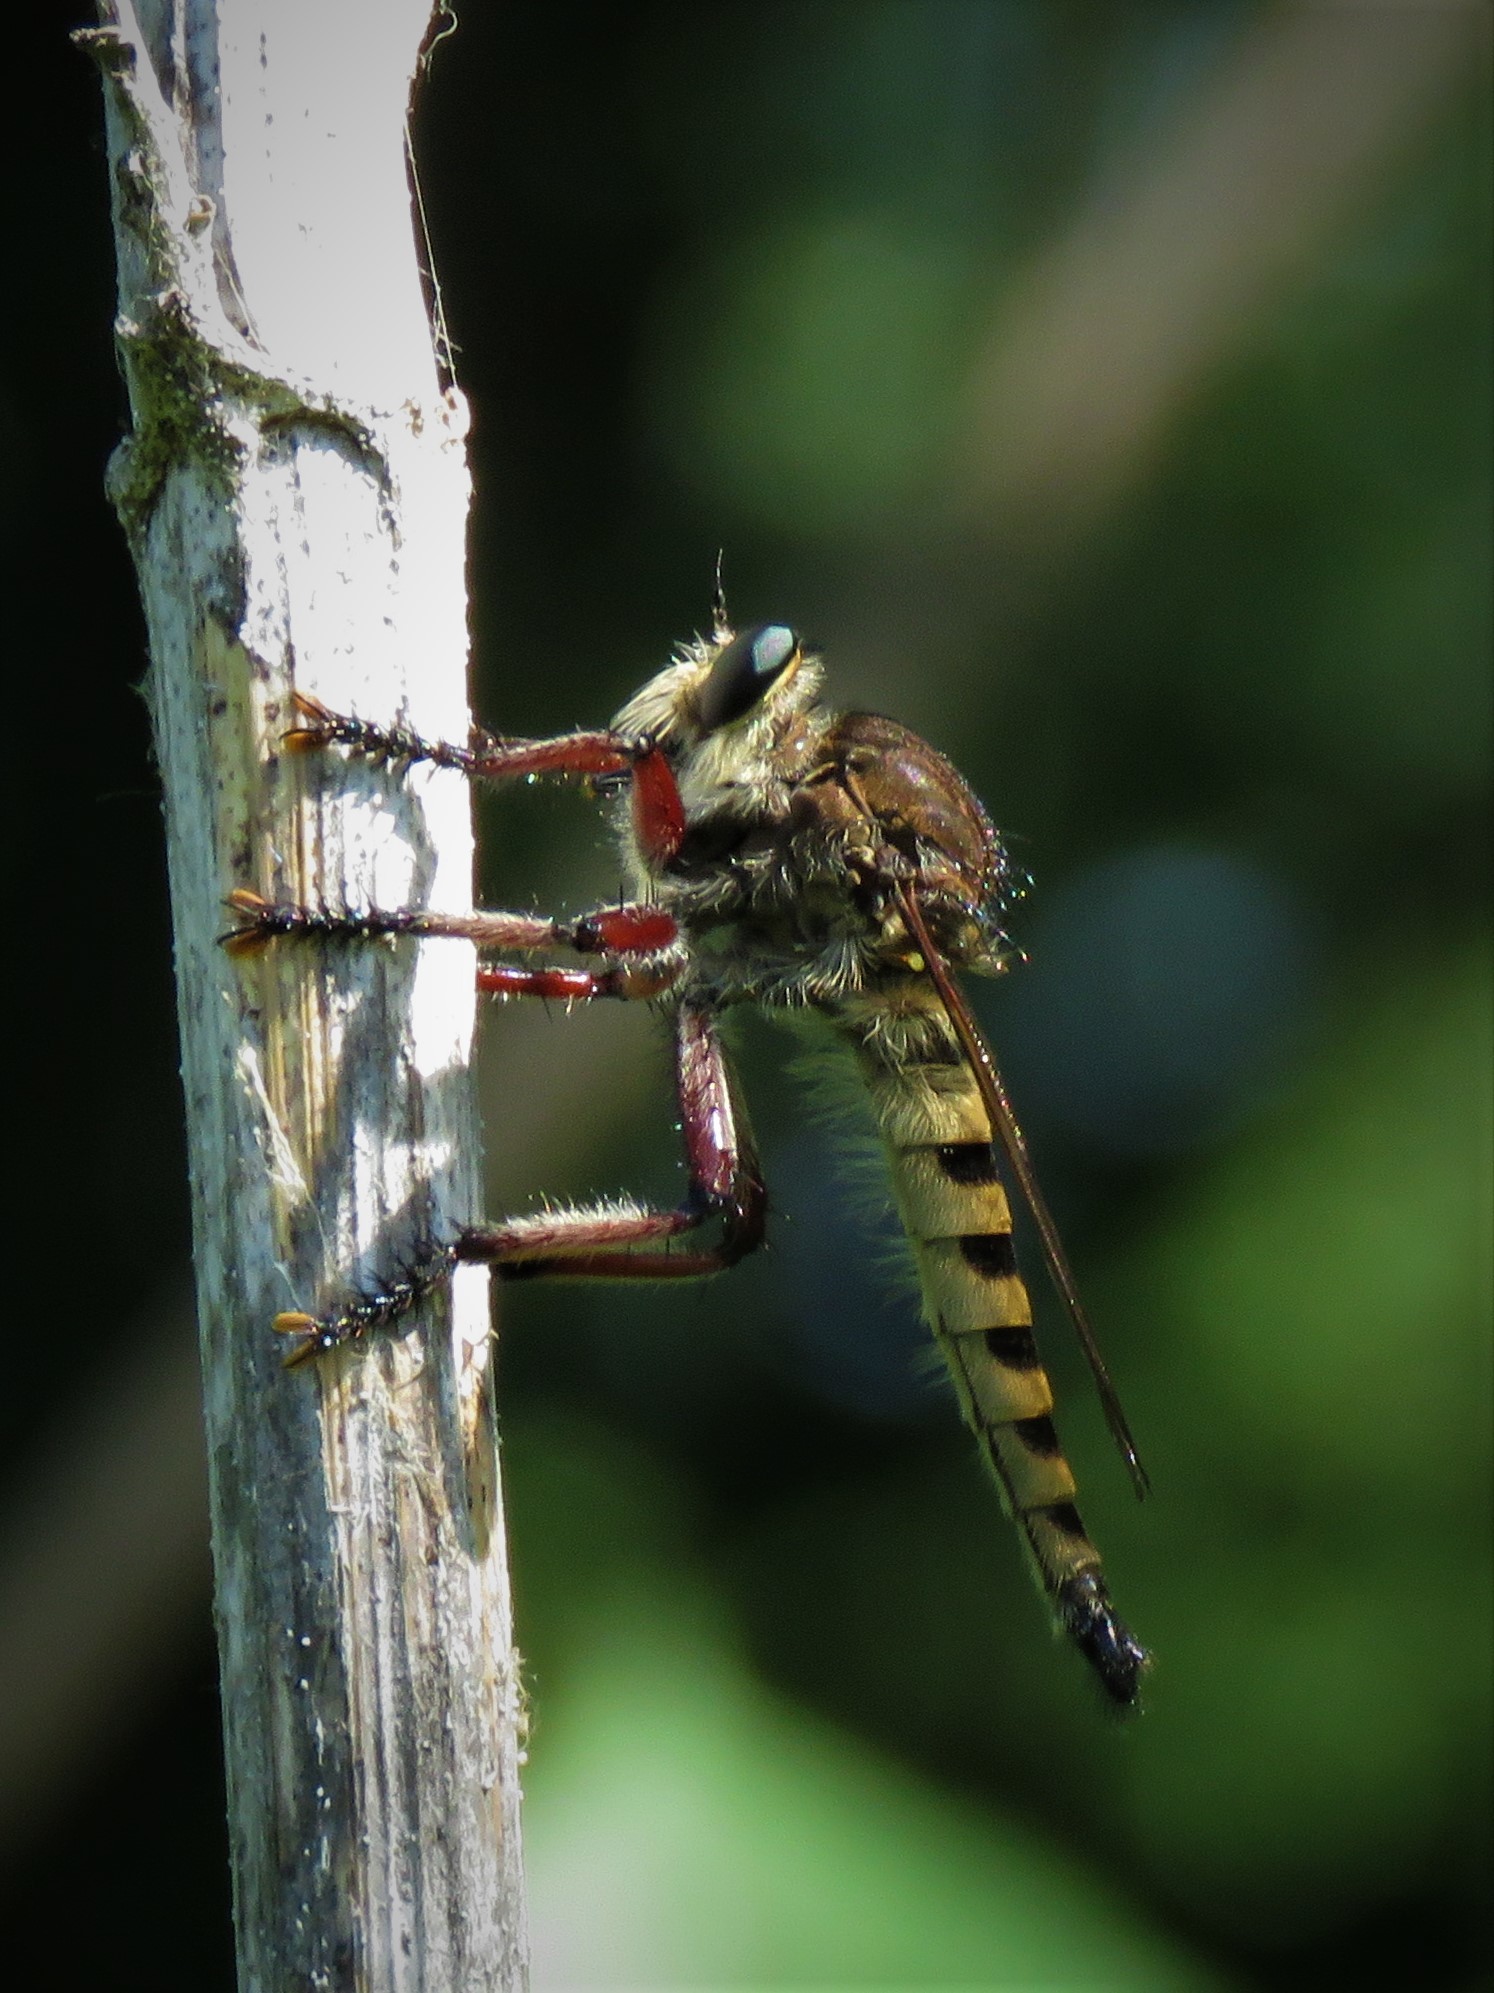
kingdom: Animalia
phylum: Arthropoda
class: Insecta
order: Diptera
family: Asilidae
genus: Promachus
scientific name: Promachus hinei
